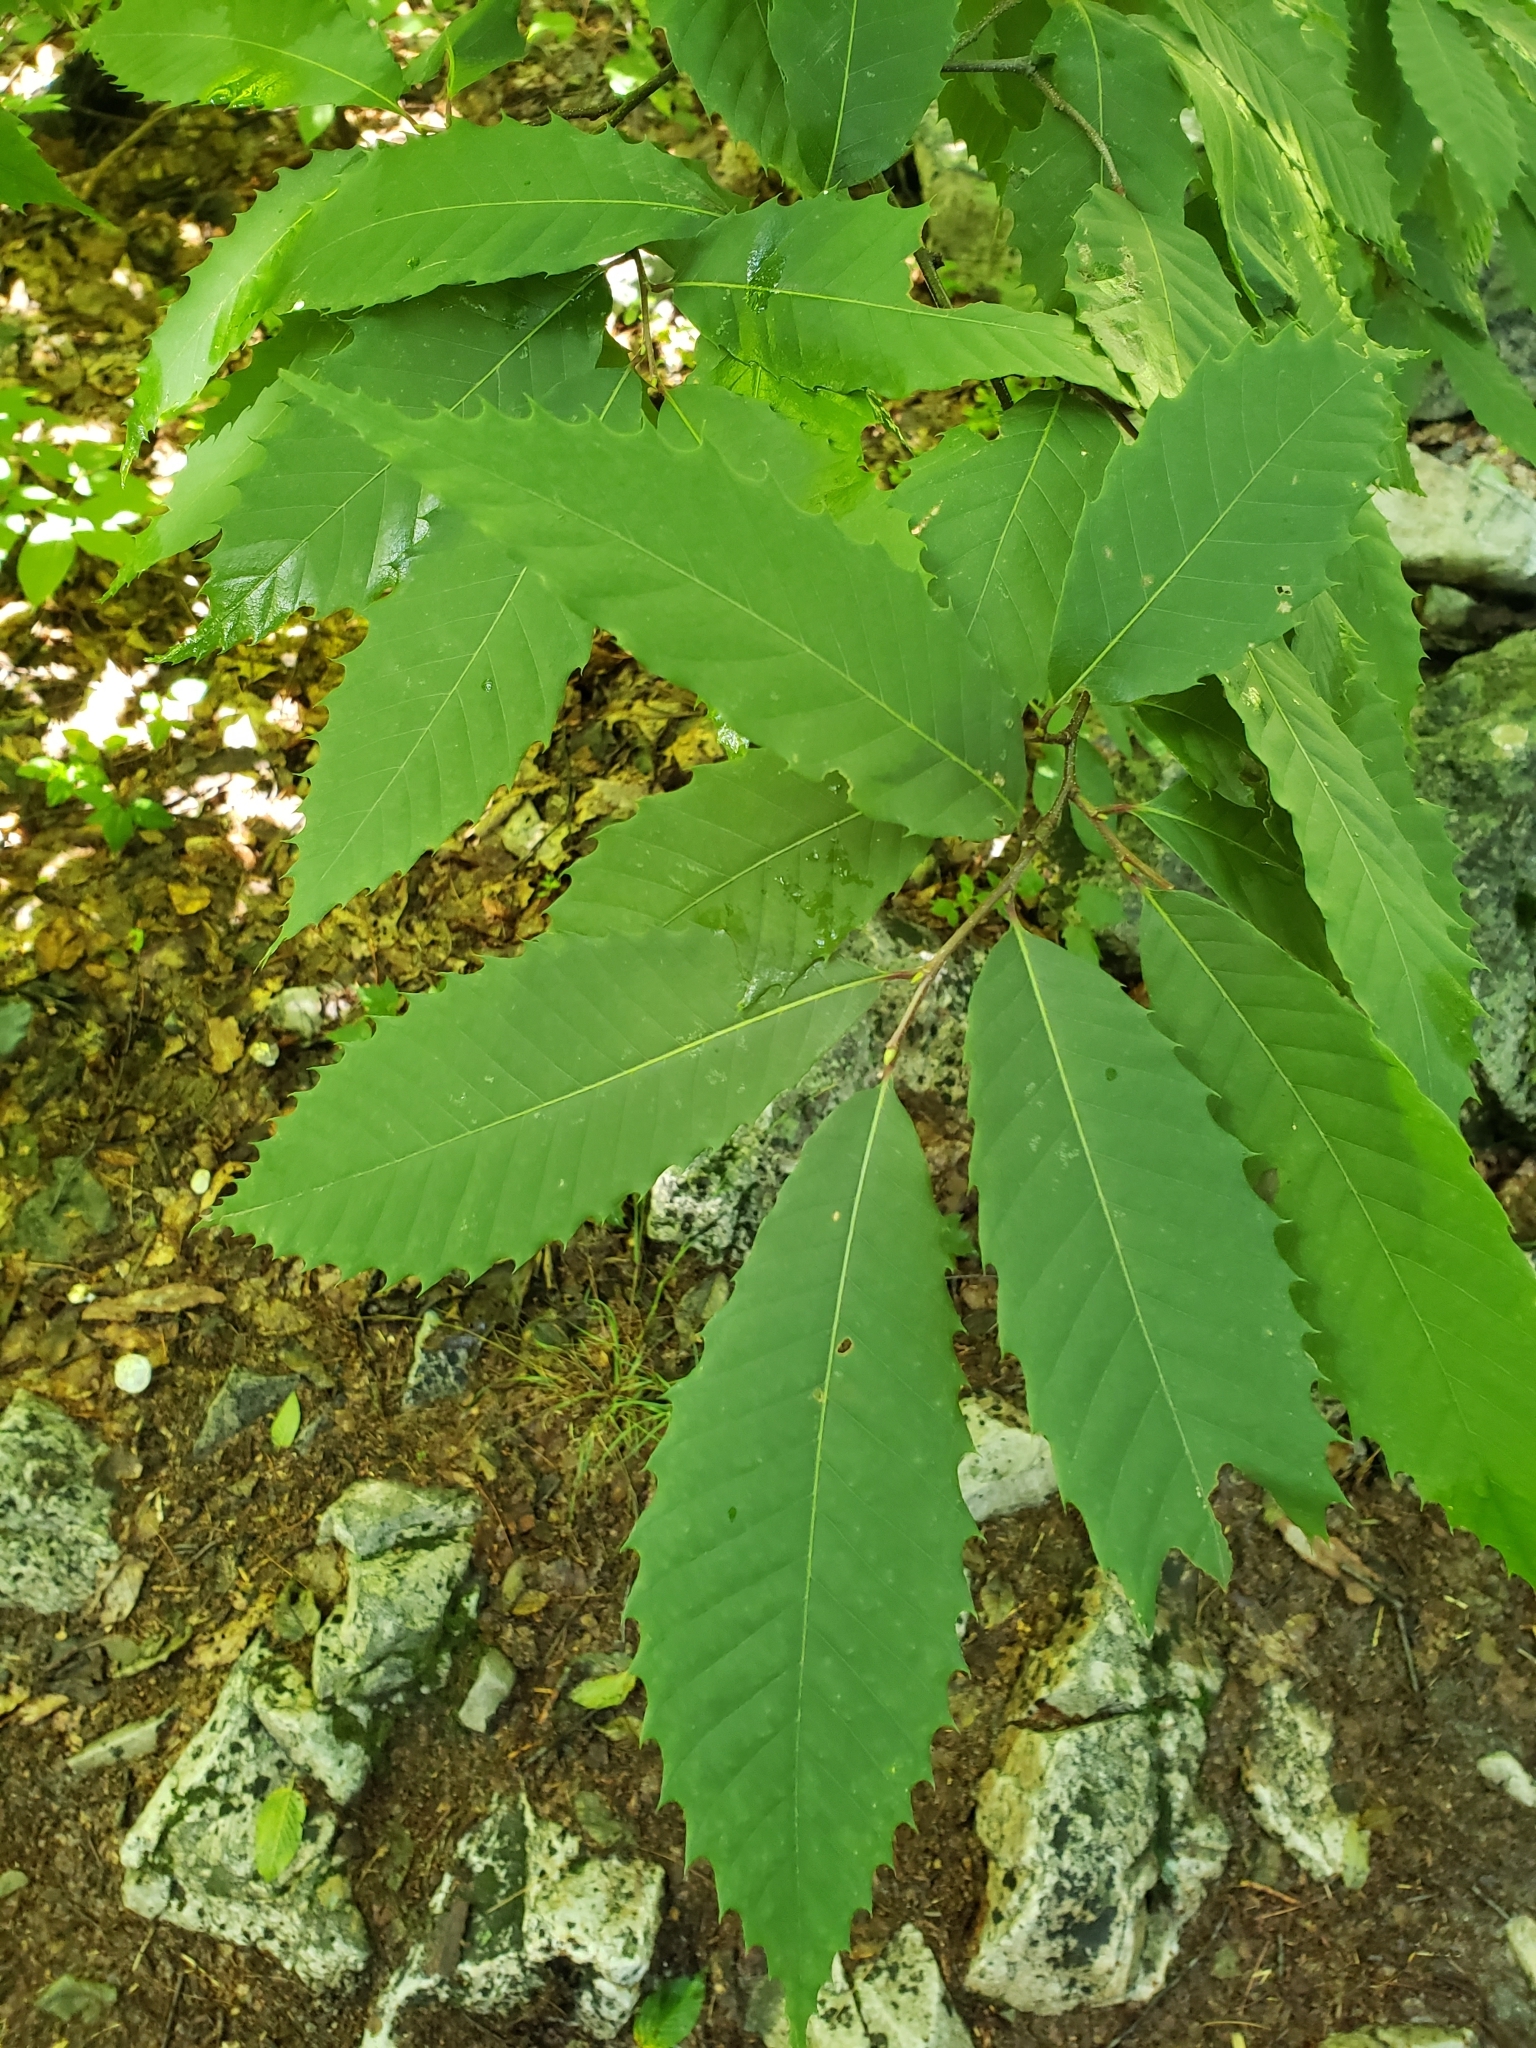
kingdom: Plantae
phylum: Tracheophyta
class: Magnoliopsida
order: Fagales
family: Fagaceae
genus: Castanea
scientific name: Castanea dentata
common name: American chestnut
